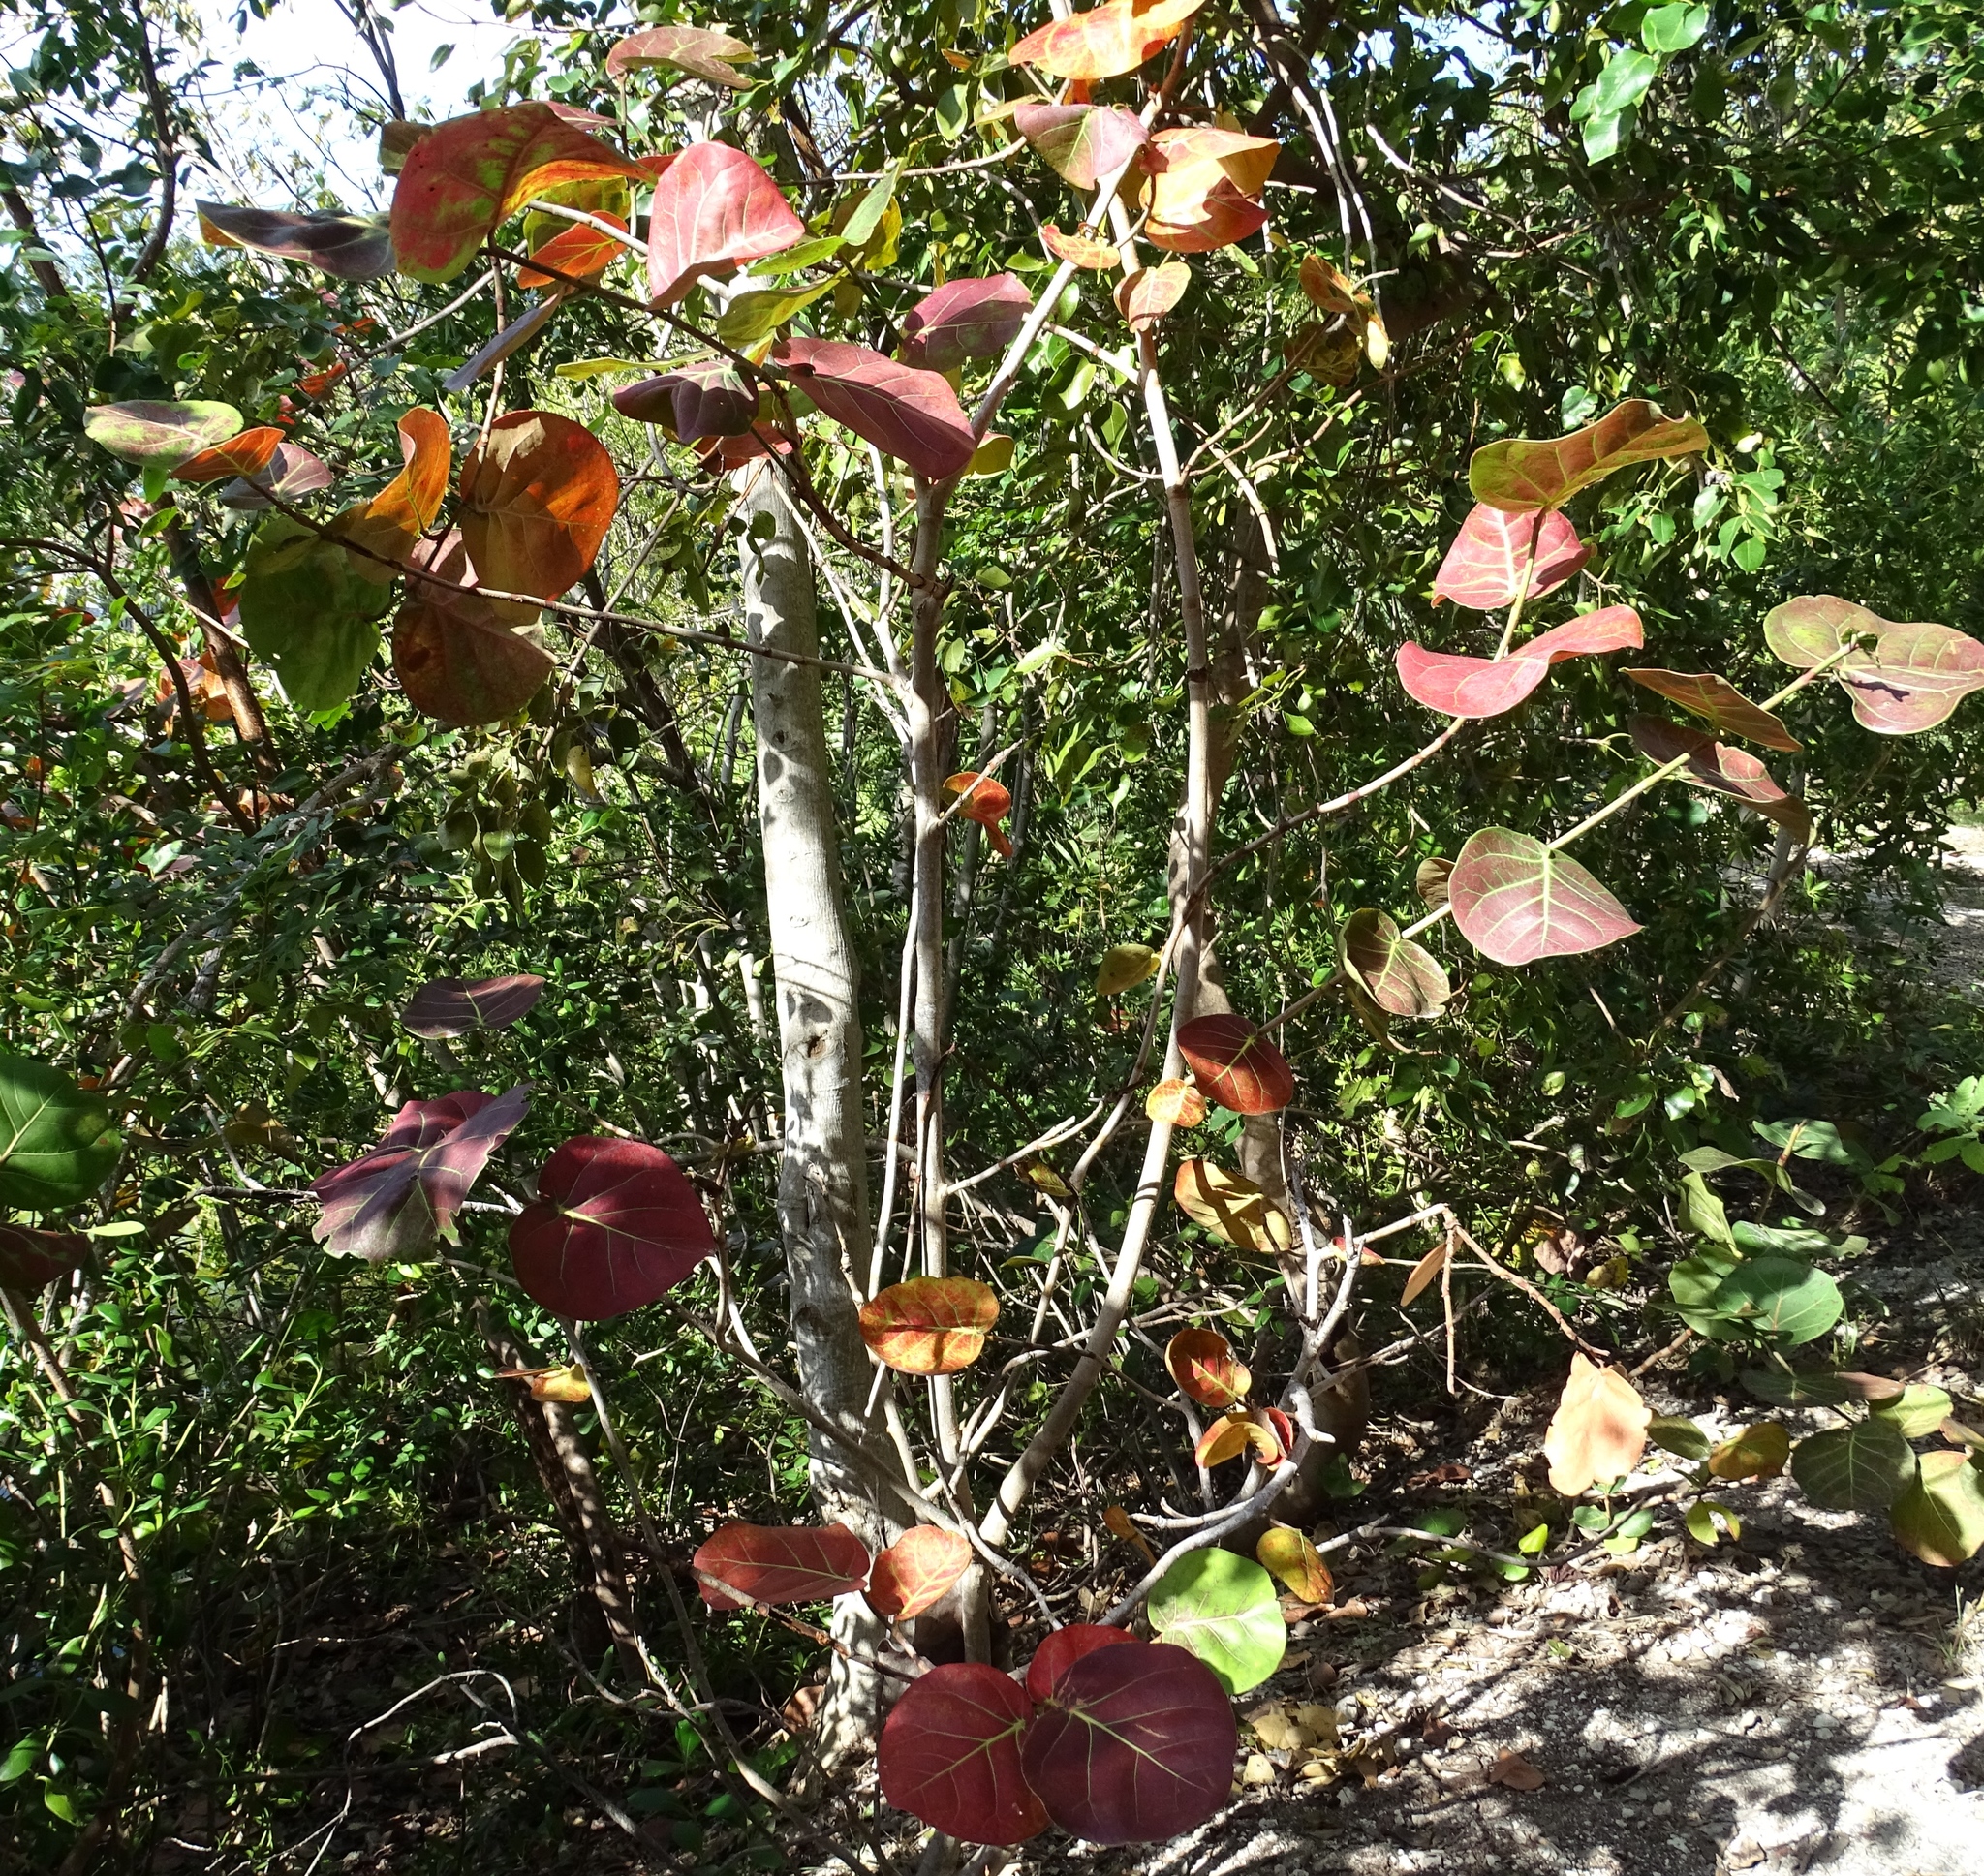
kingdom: Plantae
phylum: Tracheophyta
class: Magnoliopsida
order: Caryophyllales
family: Polygonaceae
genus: Coccoloba
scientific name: Coccoloba uvifera
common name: Seagrape
